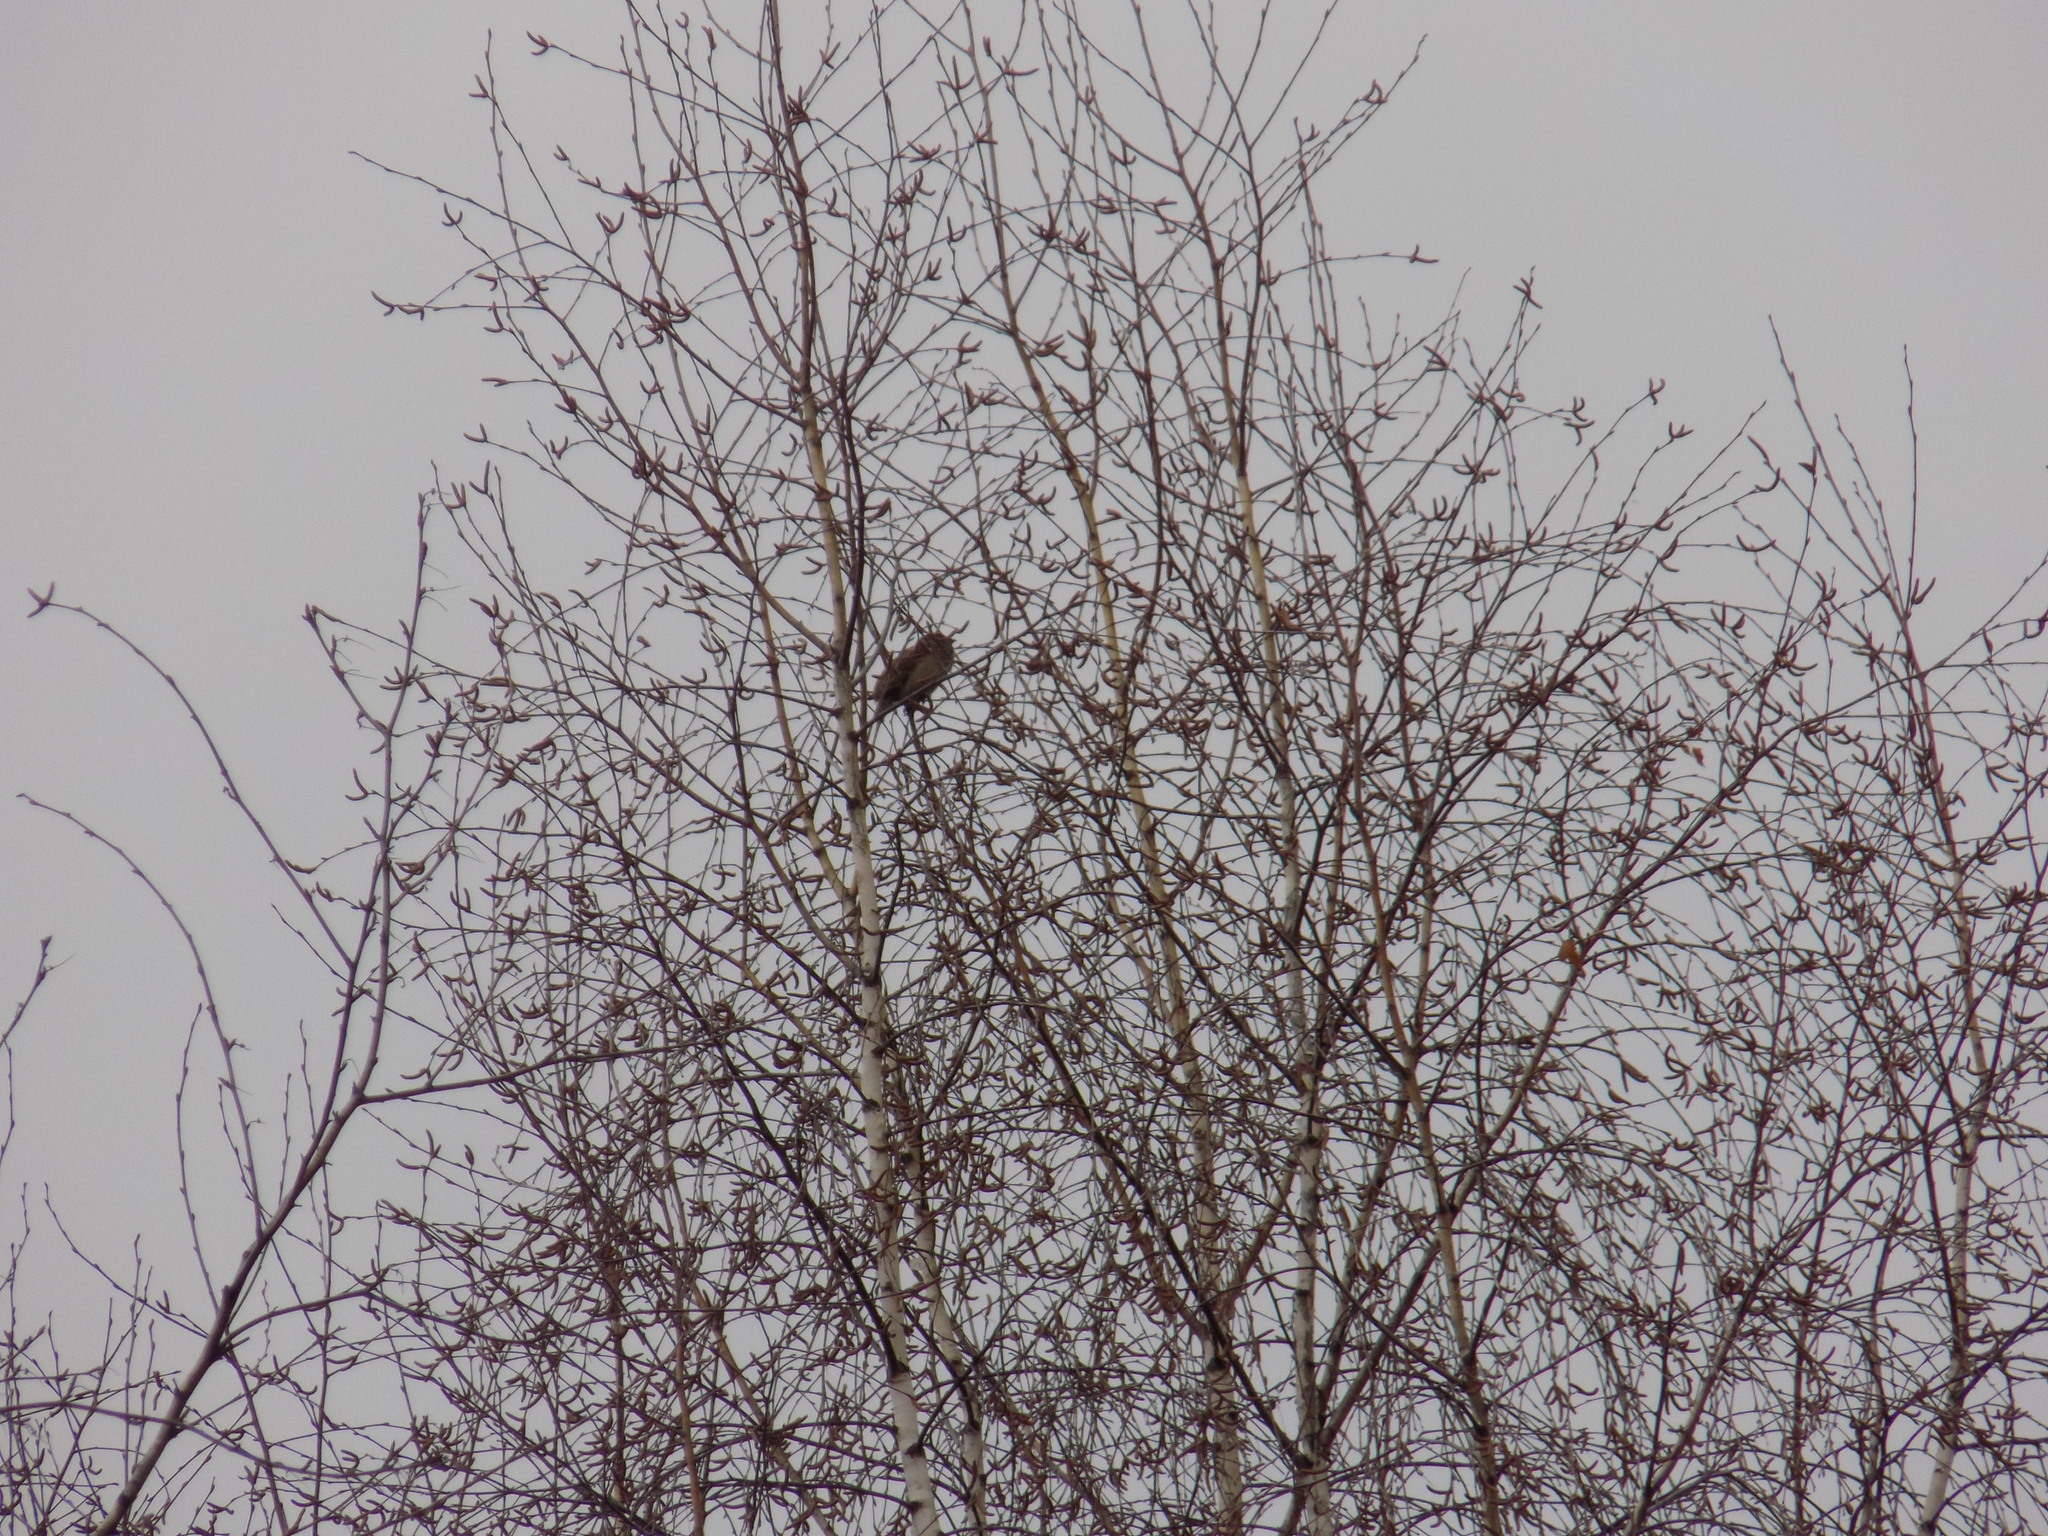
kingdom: Animalia
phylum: Chordata
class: Aves
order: Passeriformes
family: Emberizidae
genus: Emberiza
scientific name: Emberiza
